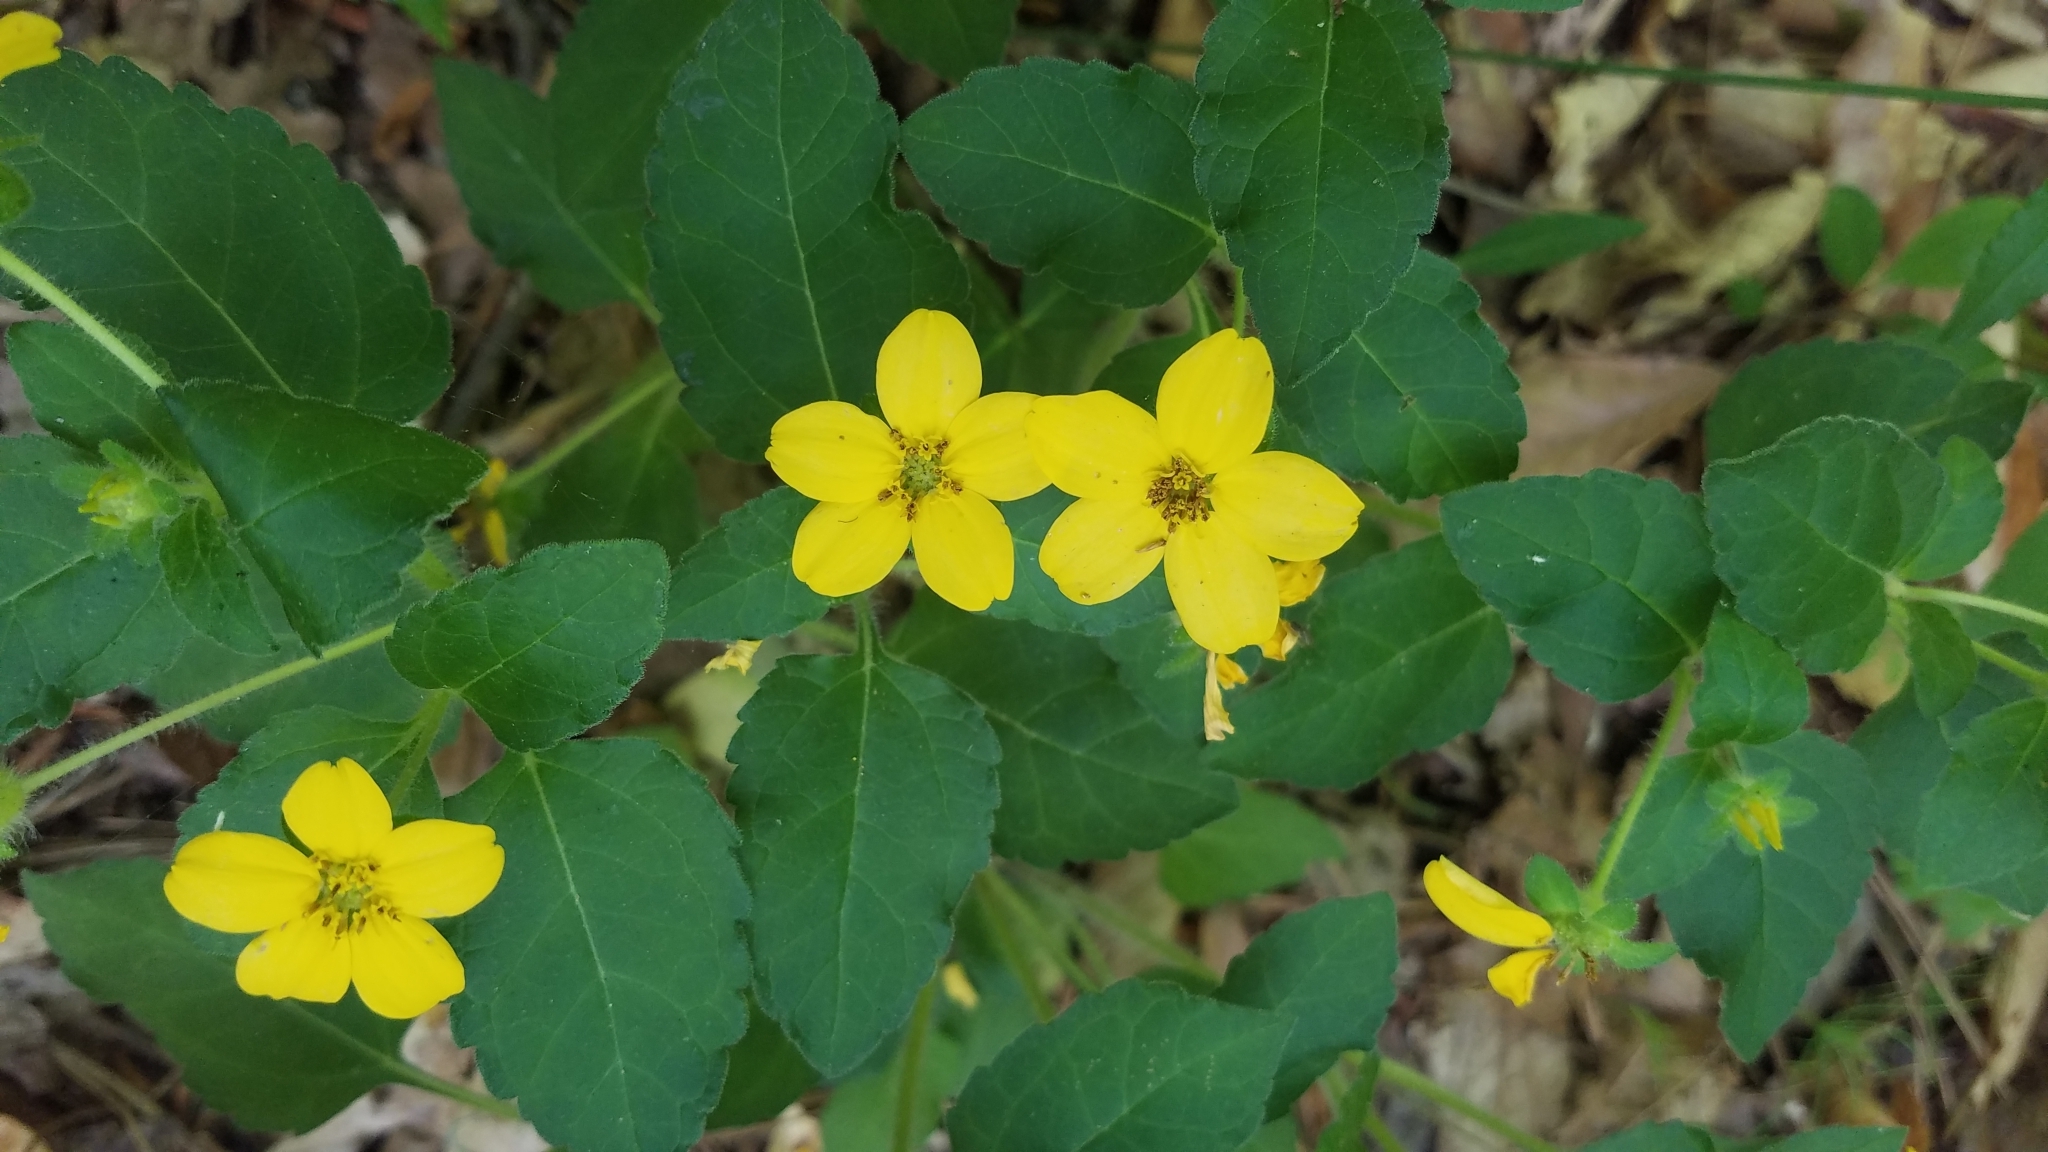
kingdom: Plantae
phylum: Tracheophyta
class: Magnoliopsida
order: Asterales
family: Asteraceae
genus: Chrysogonum
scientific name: Chrysogonum virginianum
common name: Golden-knee
